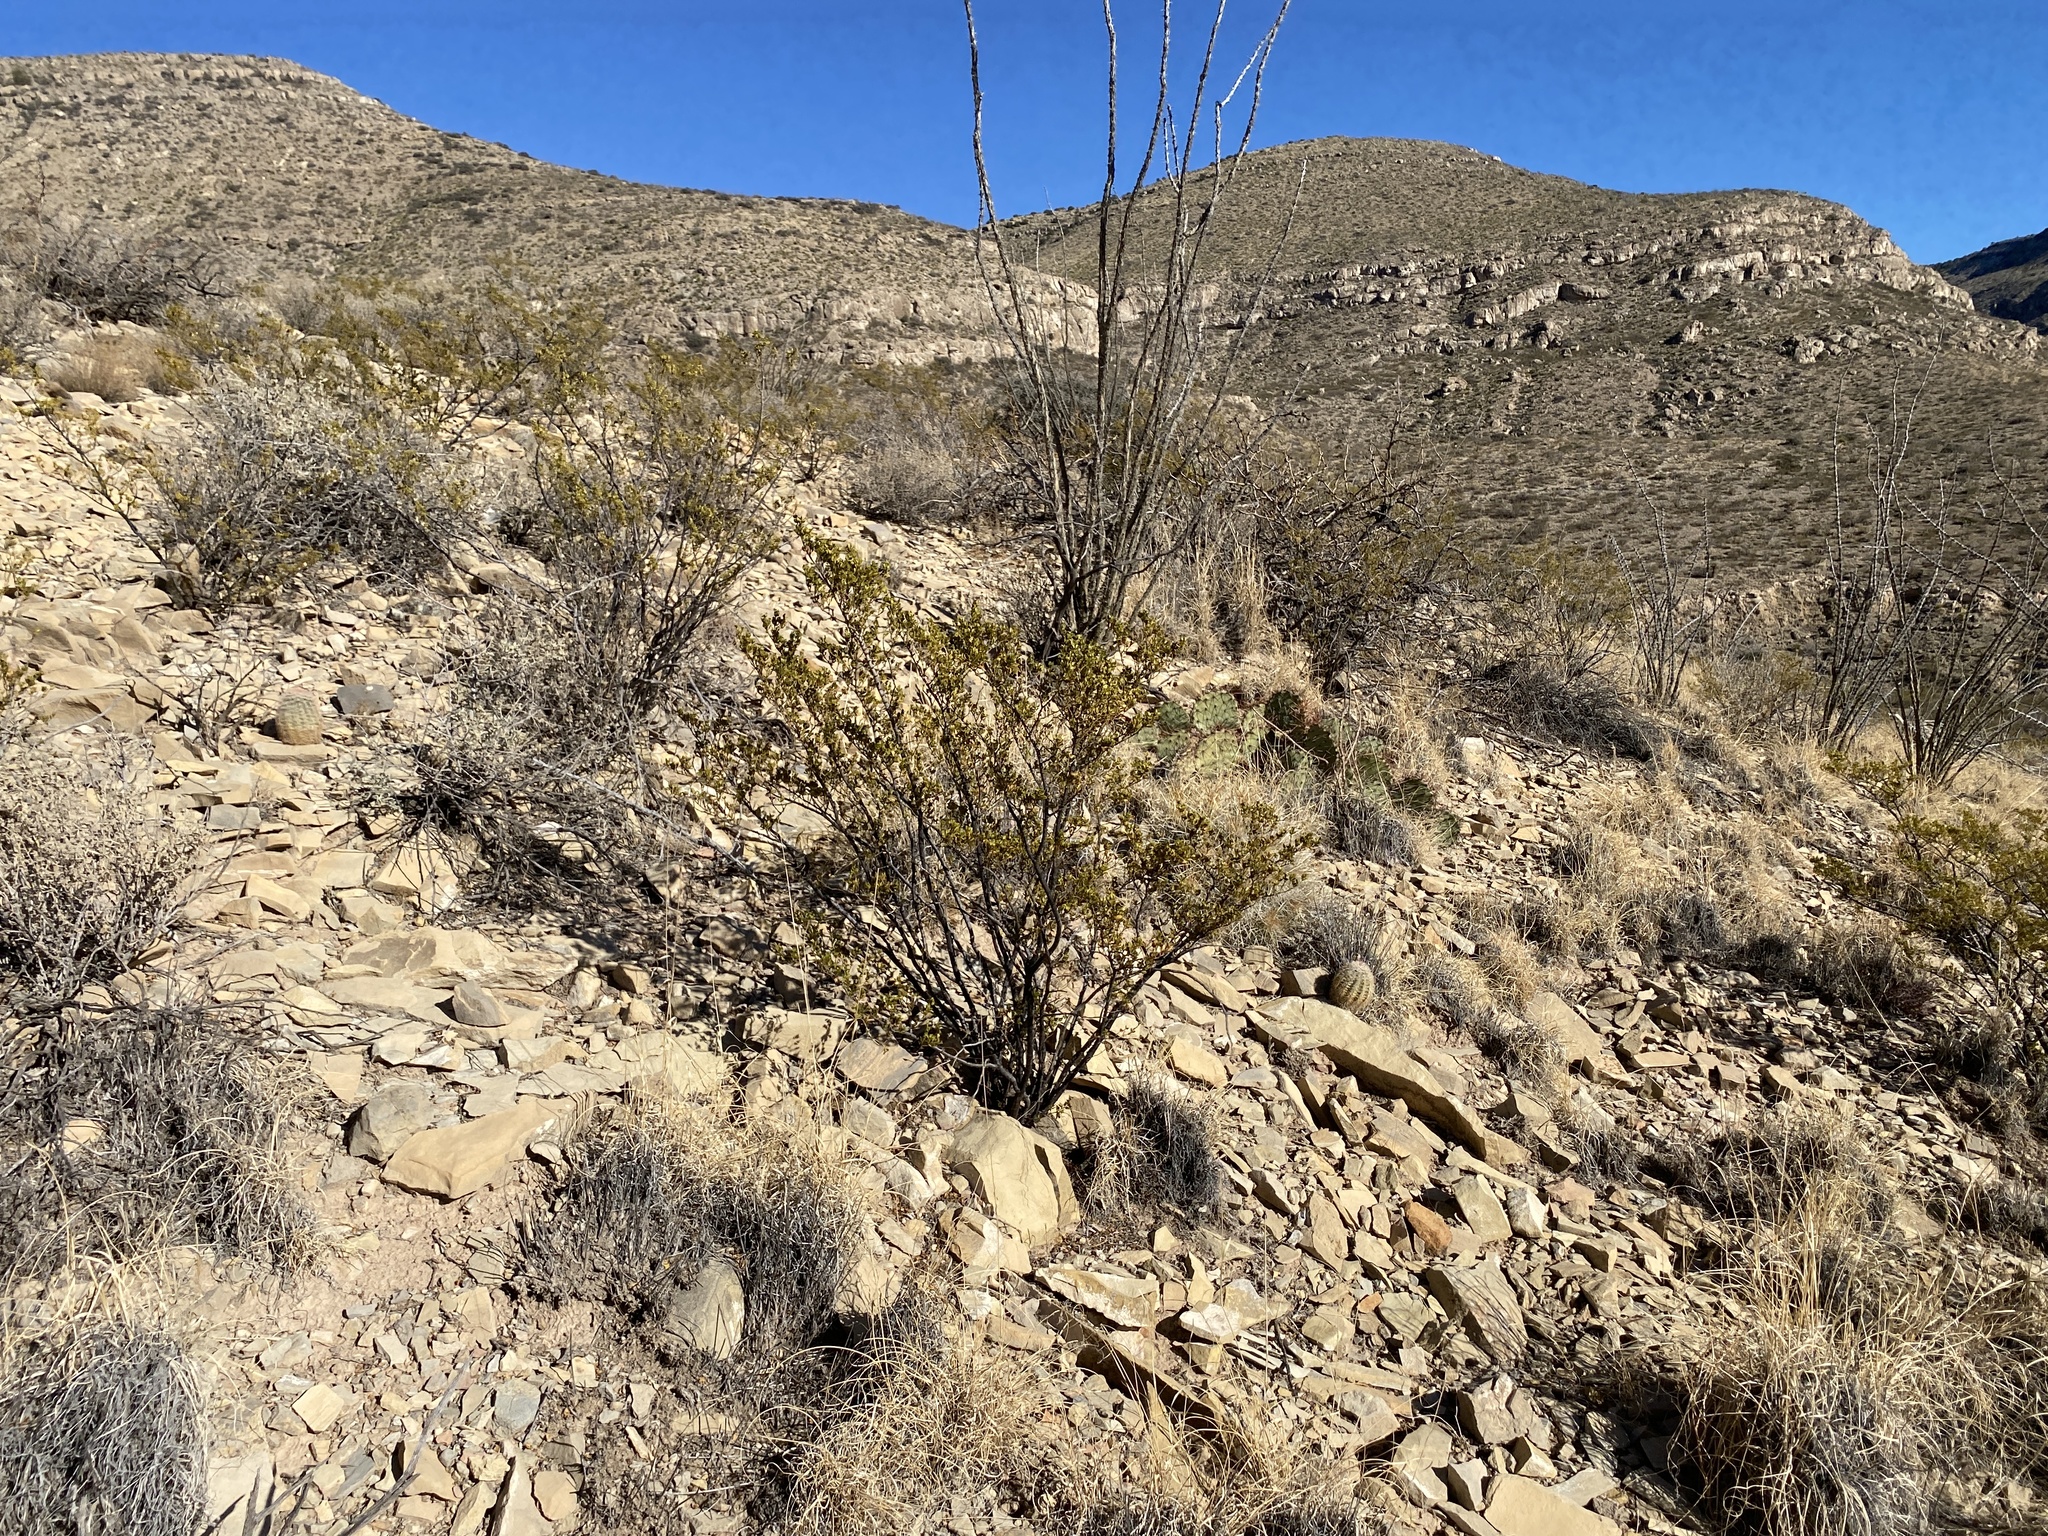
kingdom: Plantae
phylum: Tracheophyta
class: Magnoliopsida
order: Zygophyllales
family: Zygophyllaceae
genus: Larrea
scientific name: Larrea tridentata
